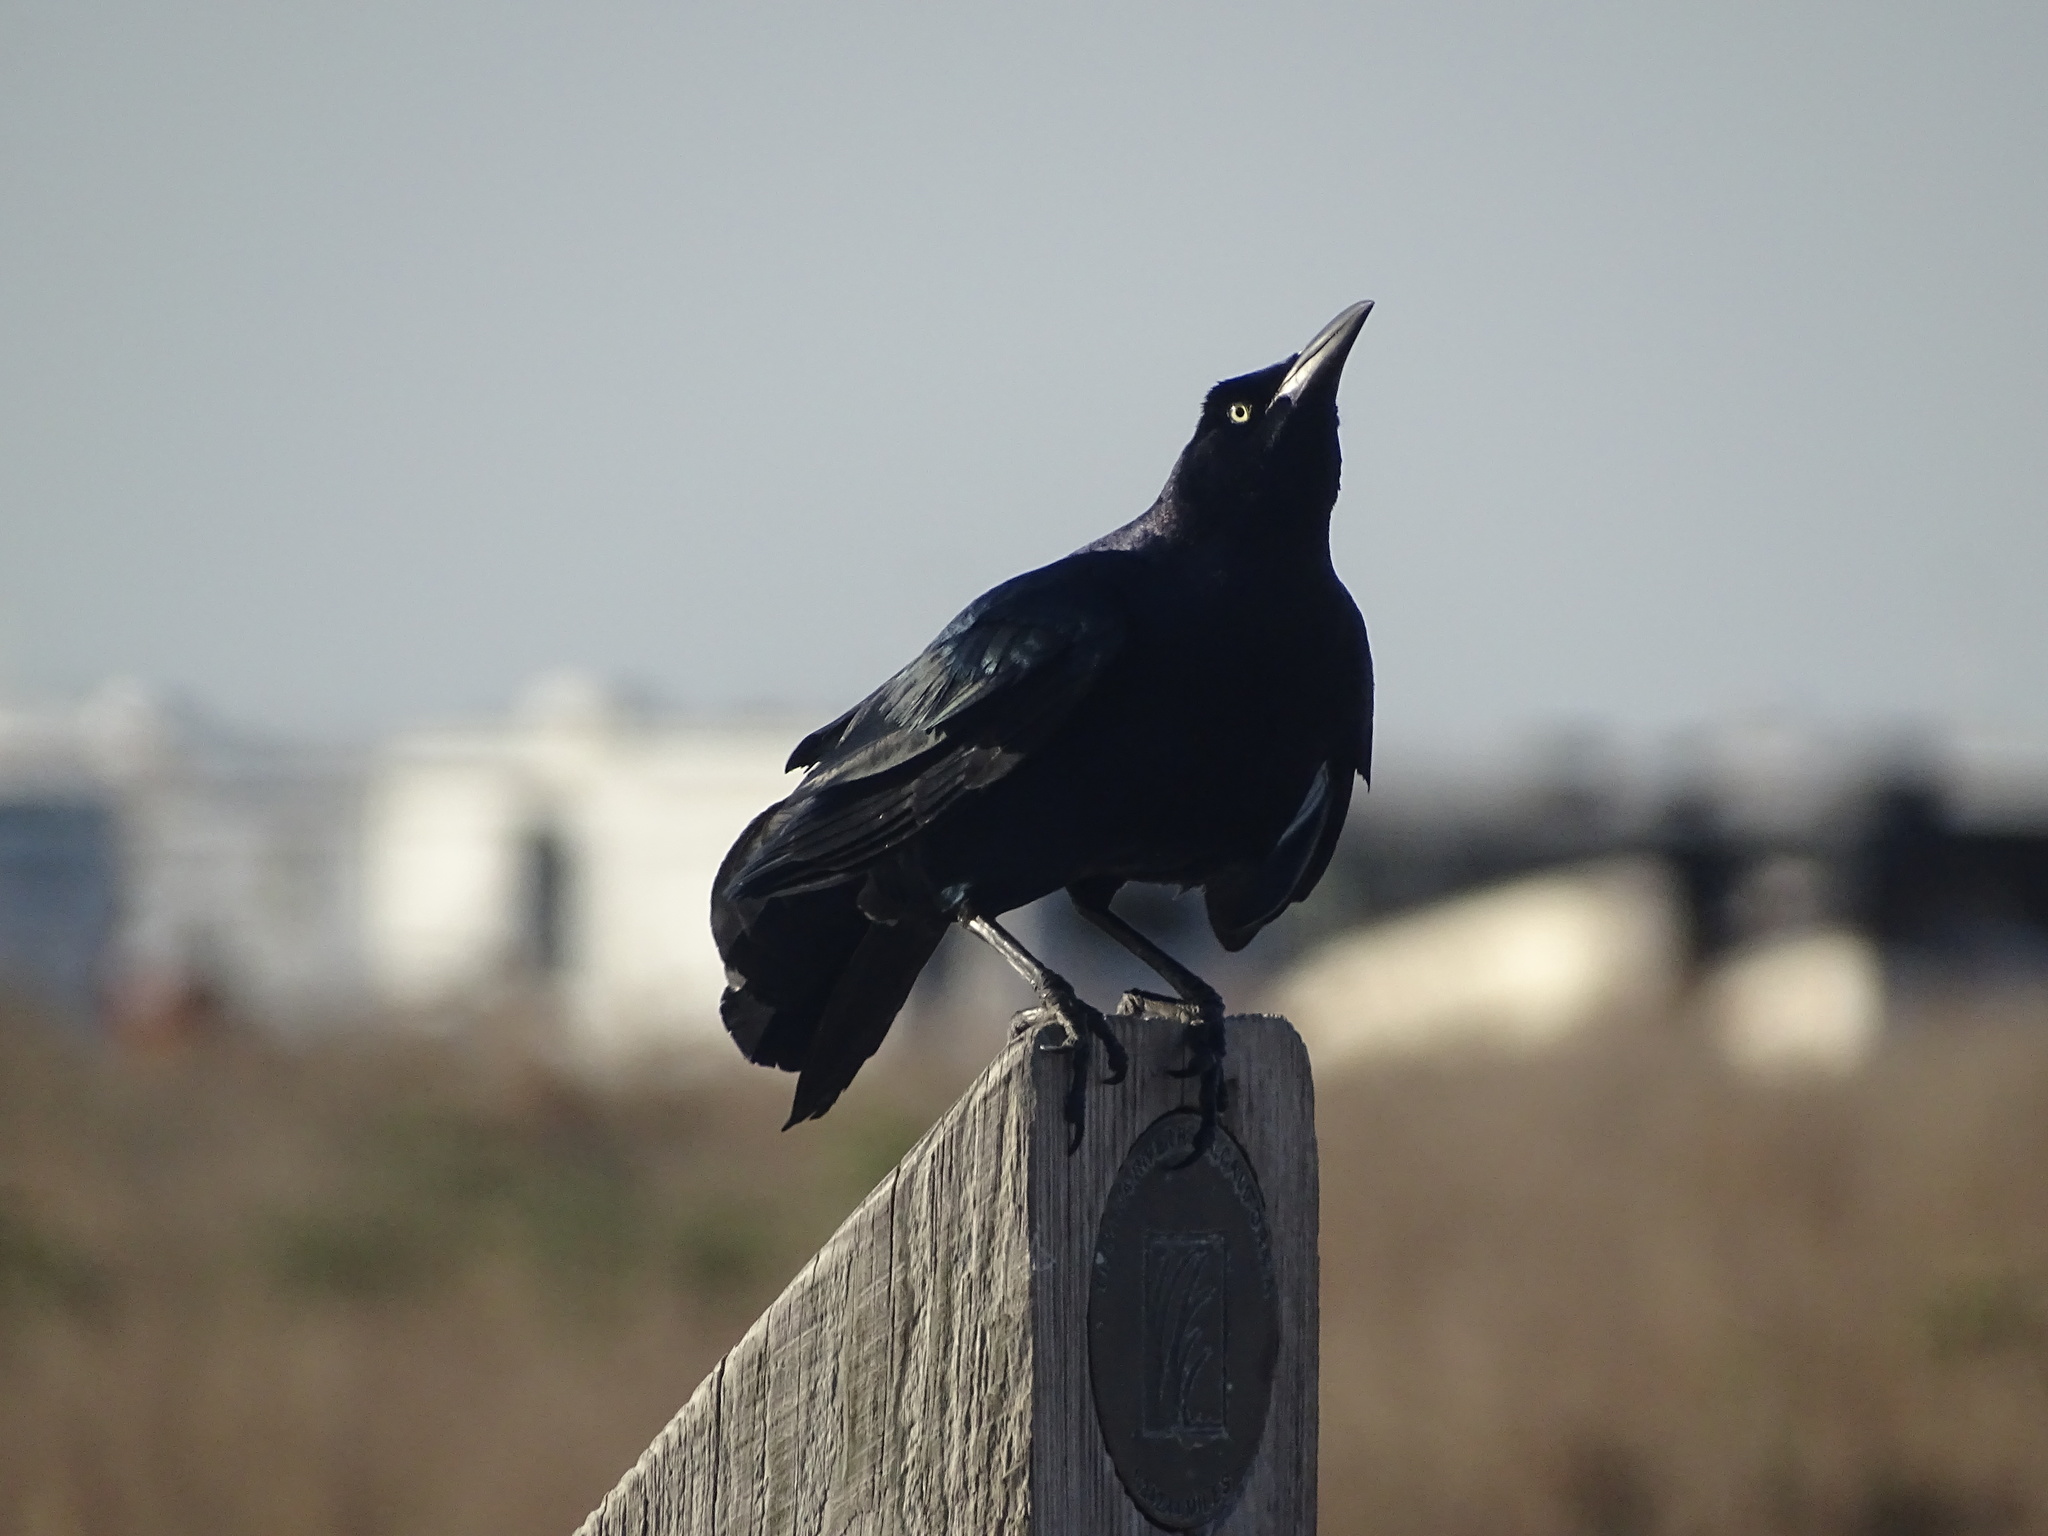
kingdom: Animalia
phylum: Chordata
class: Aves
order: Passeriformes
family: Icteridae
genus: Quiscalus
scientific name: Quiscalus mexicanus
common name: Great-tailed grackle
